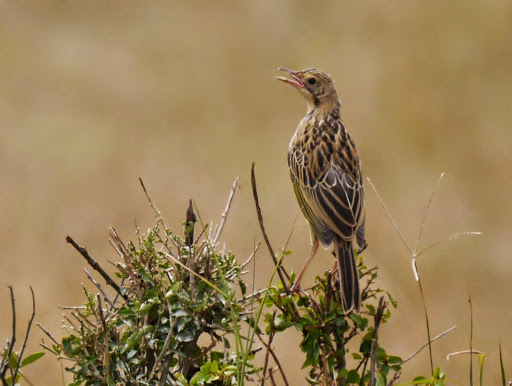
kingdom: Animalia
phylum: Chordata
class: Aves
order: Passeriformes
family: Motacillidae
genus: Macronyx
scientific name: Macronyx croceus
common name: Yellow-throated longclaw
